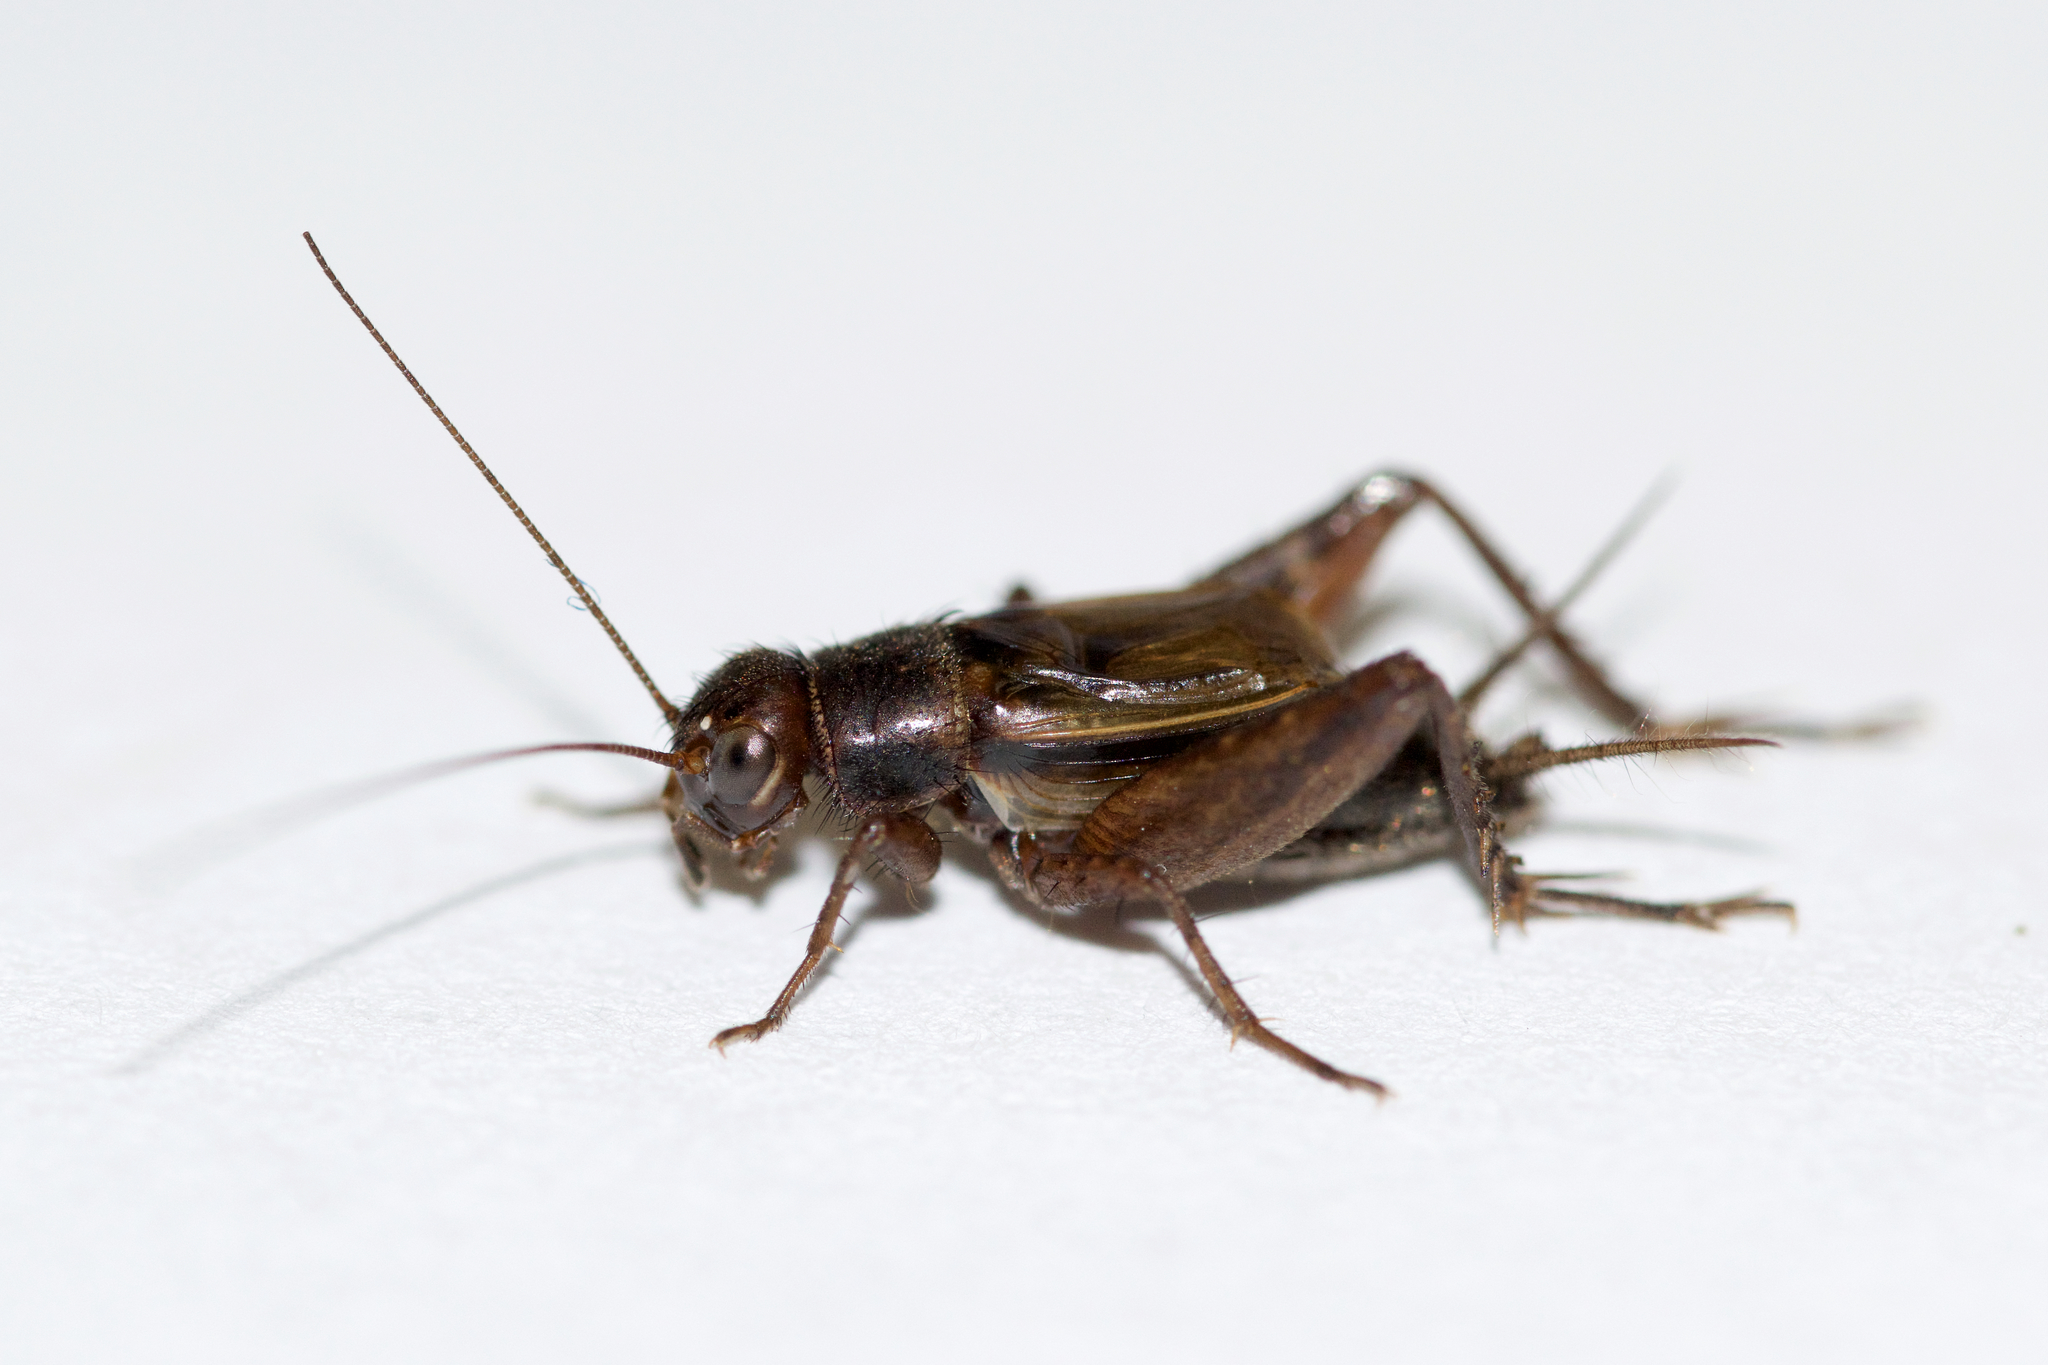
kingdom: Animalia
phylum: Arthropoda
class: Insecta
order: Orthoptera
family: Trigonidiidae
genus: Allonemobius
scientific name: Allonemobius allardi
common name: Allard’s ground cricket
